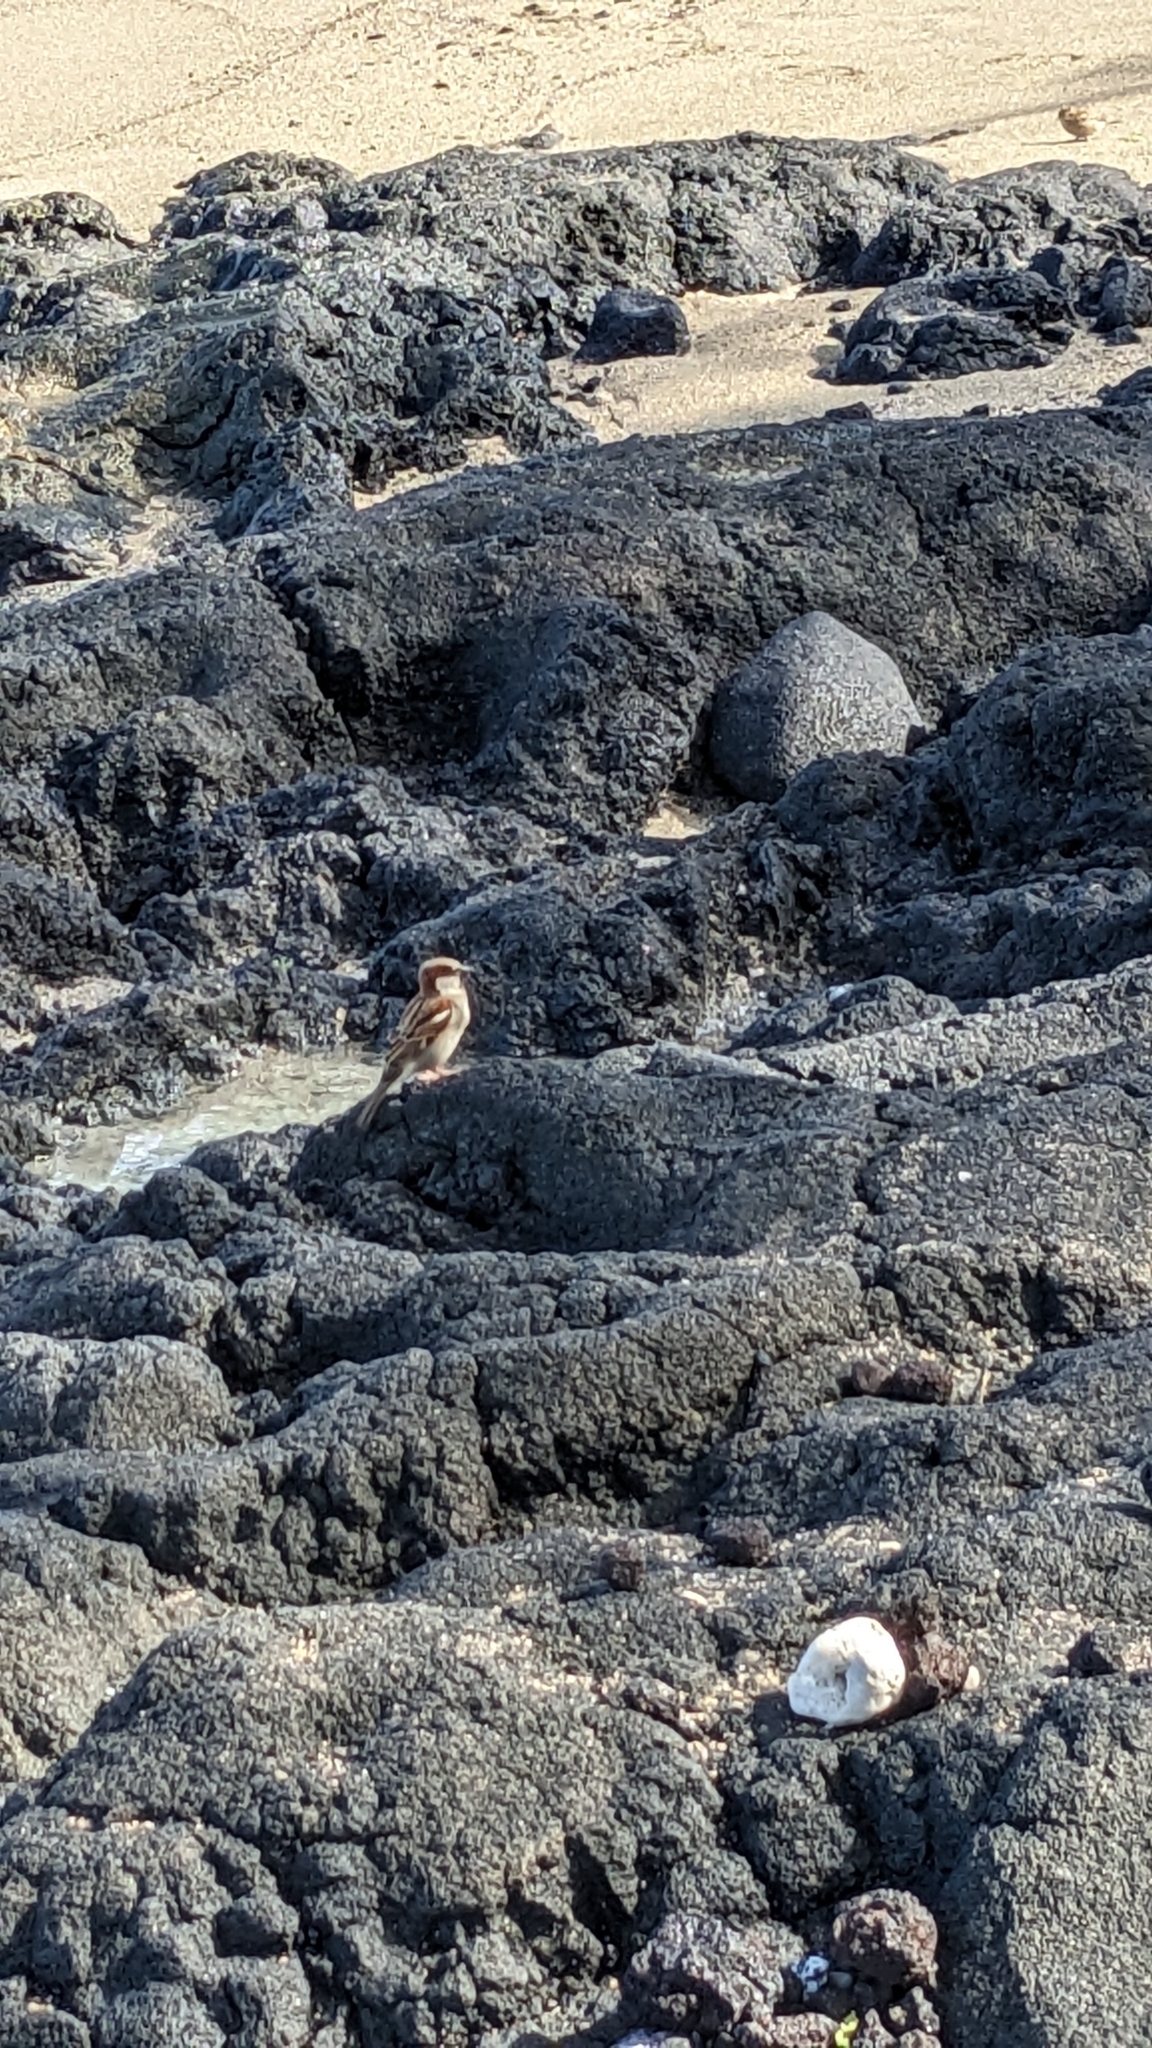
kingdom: Animalia
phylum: Chordata
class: Aves
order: Passeriformes
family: Passeridae
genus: Passer
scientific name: Passer domesticus
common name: House sparrow
